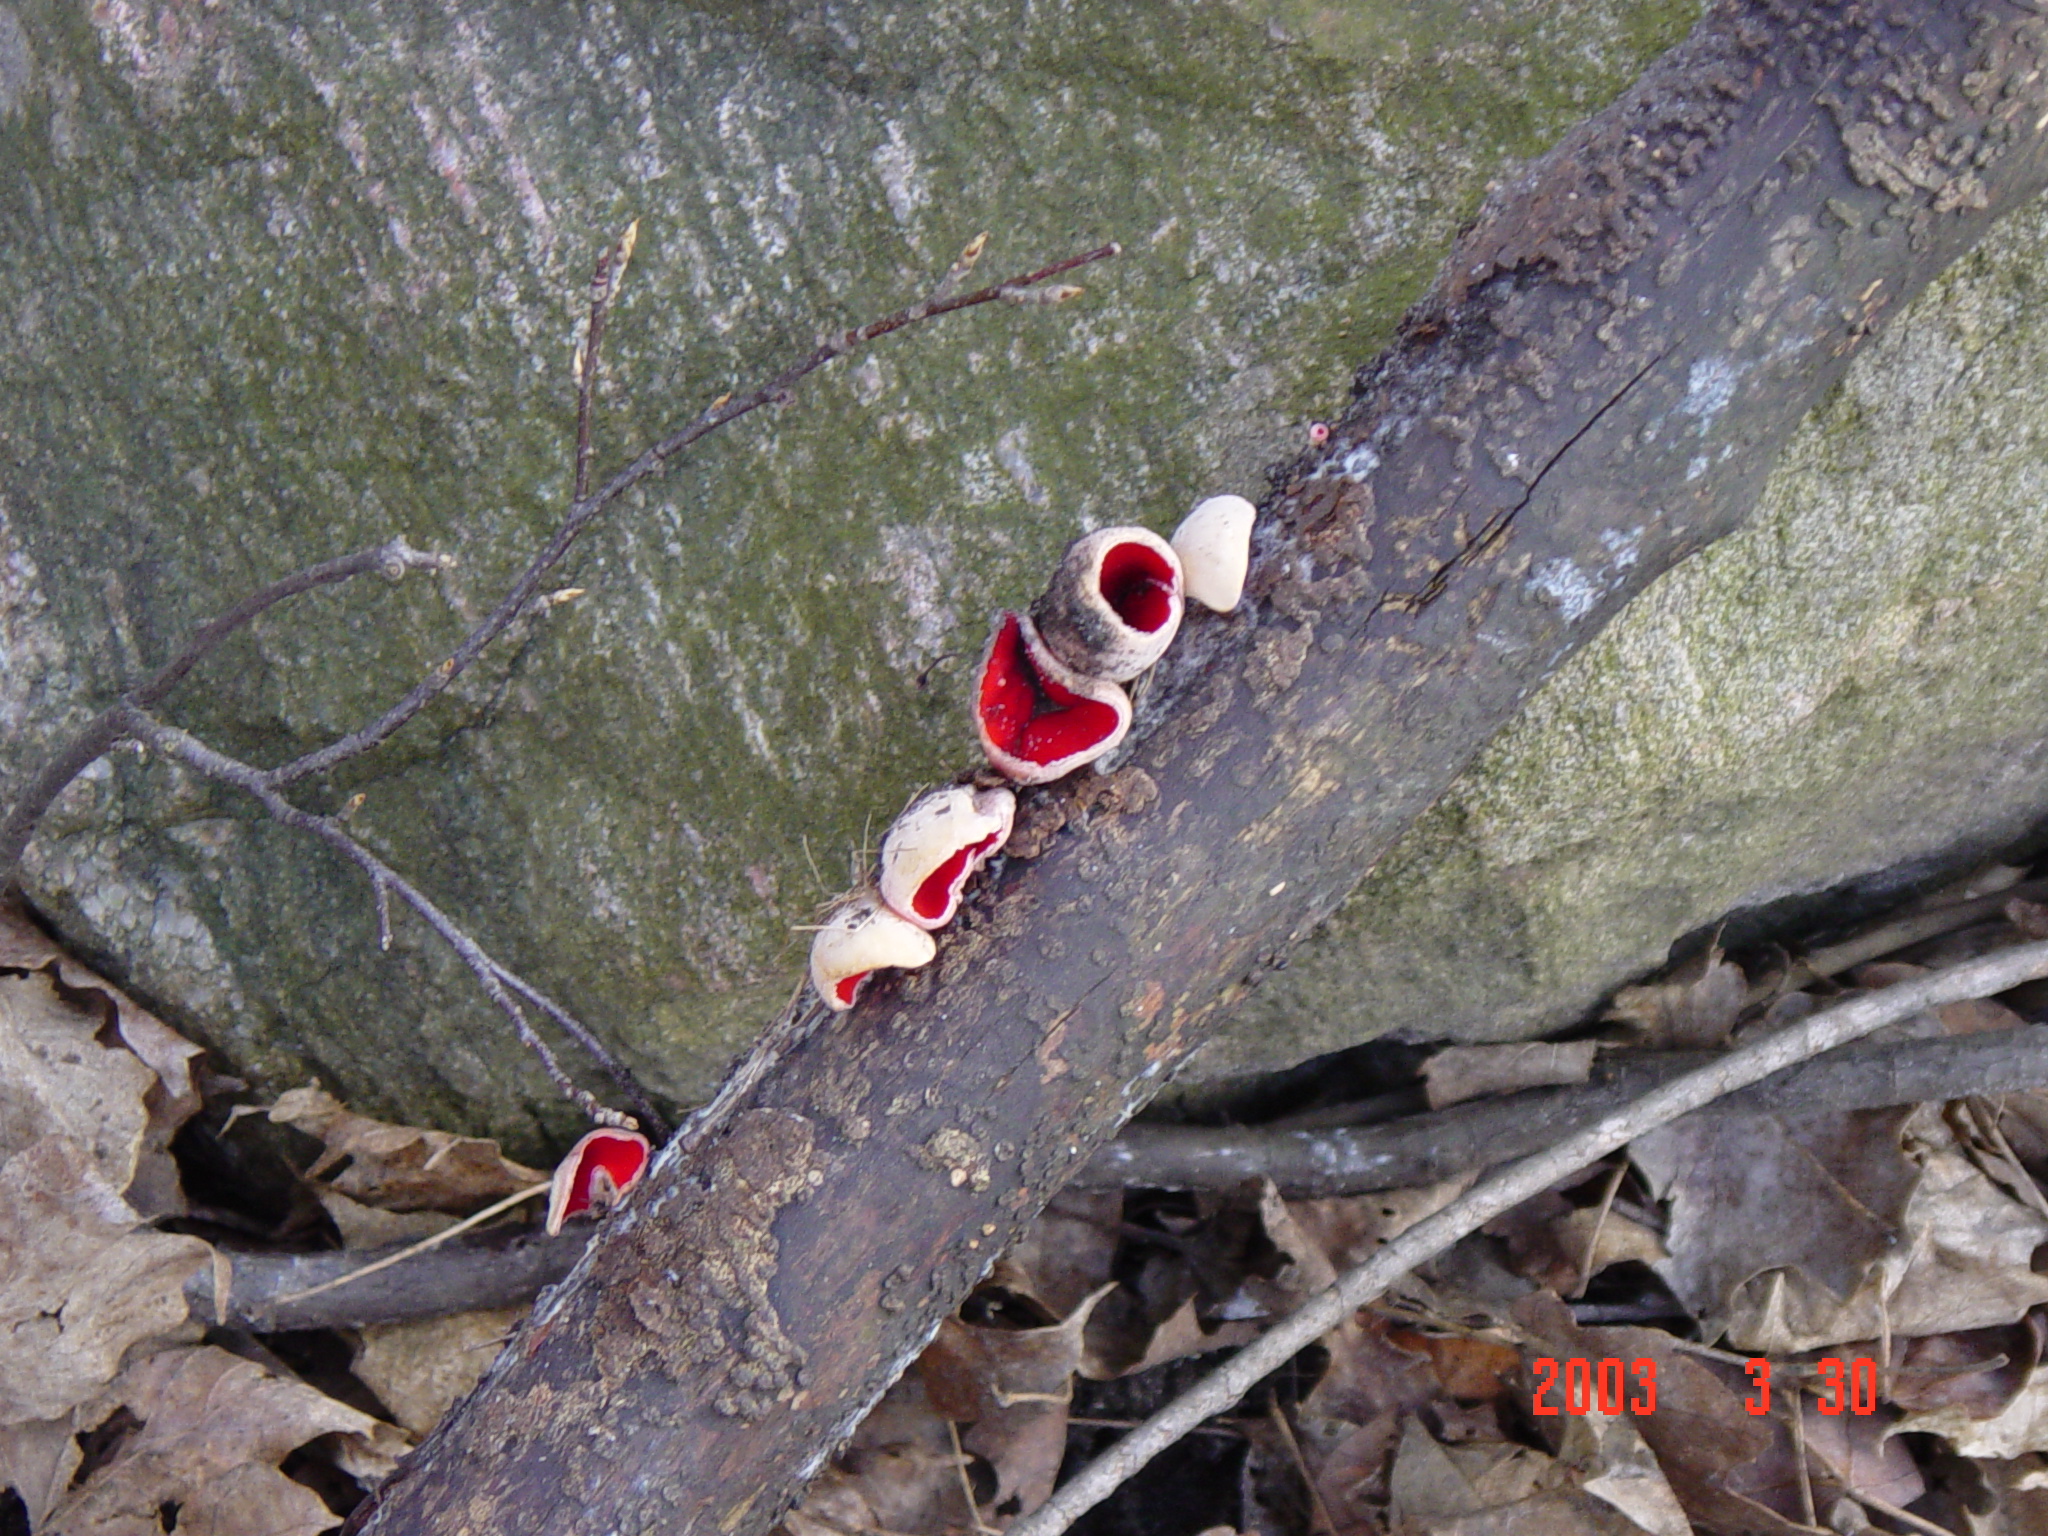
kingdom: Fungi
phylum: Ascomycota
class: Pezizomycetes
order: Pezizales
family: Sarcoscyphaceae
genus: Sarcoscypha
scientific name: Sarcoscypha
